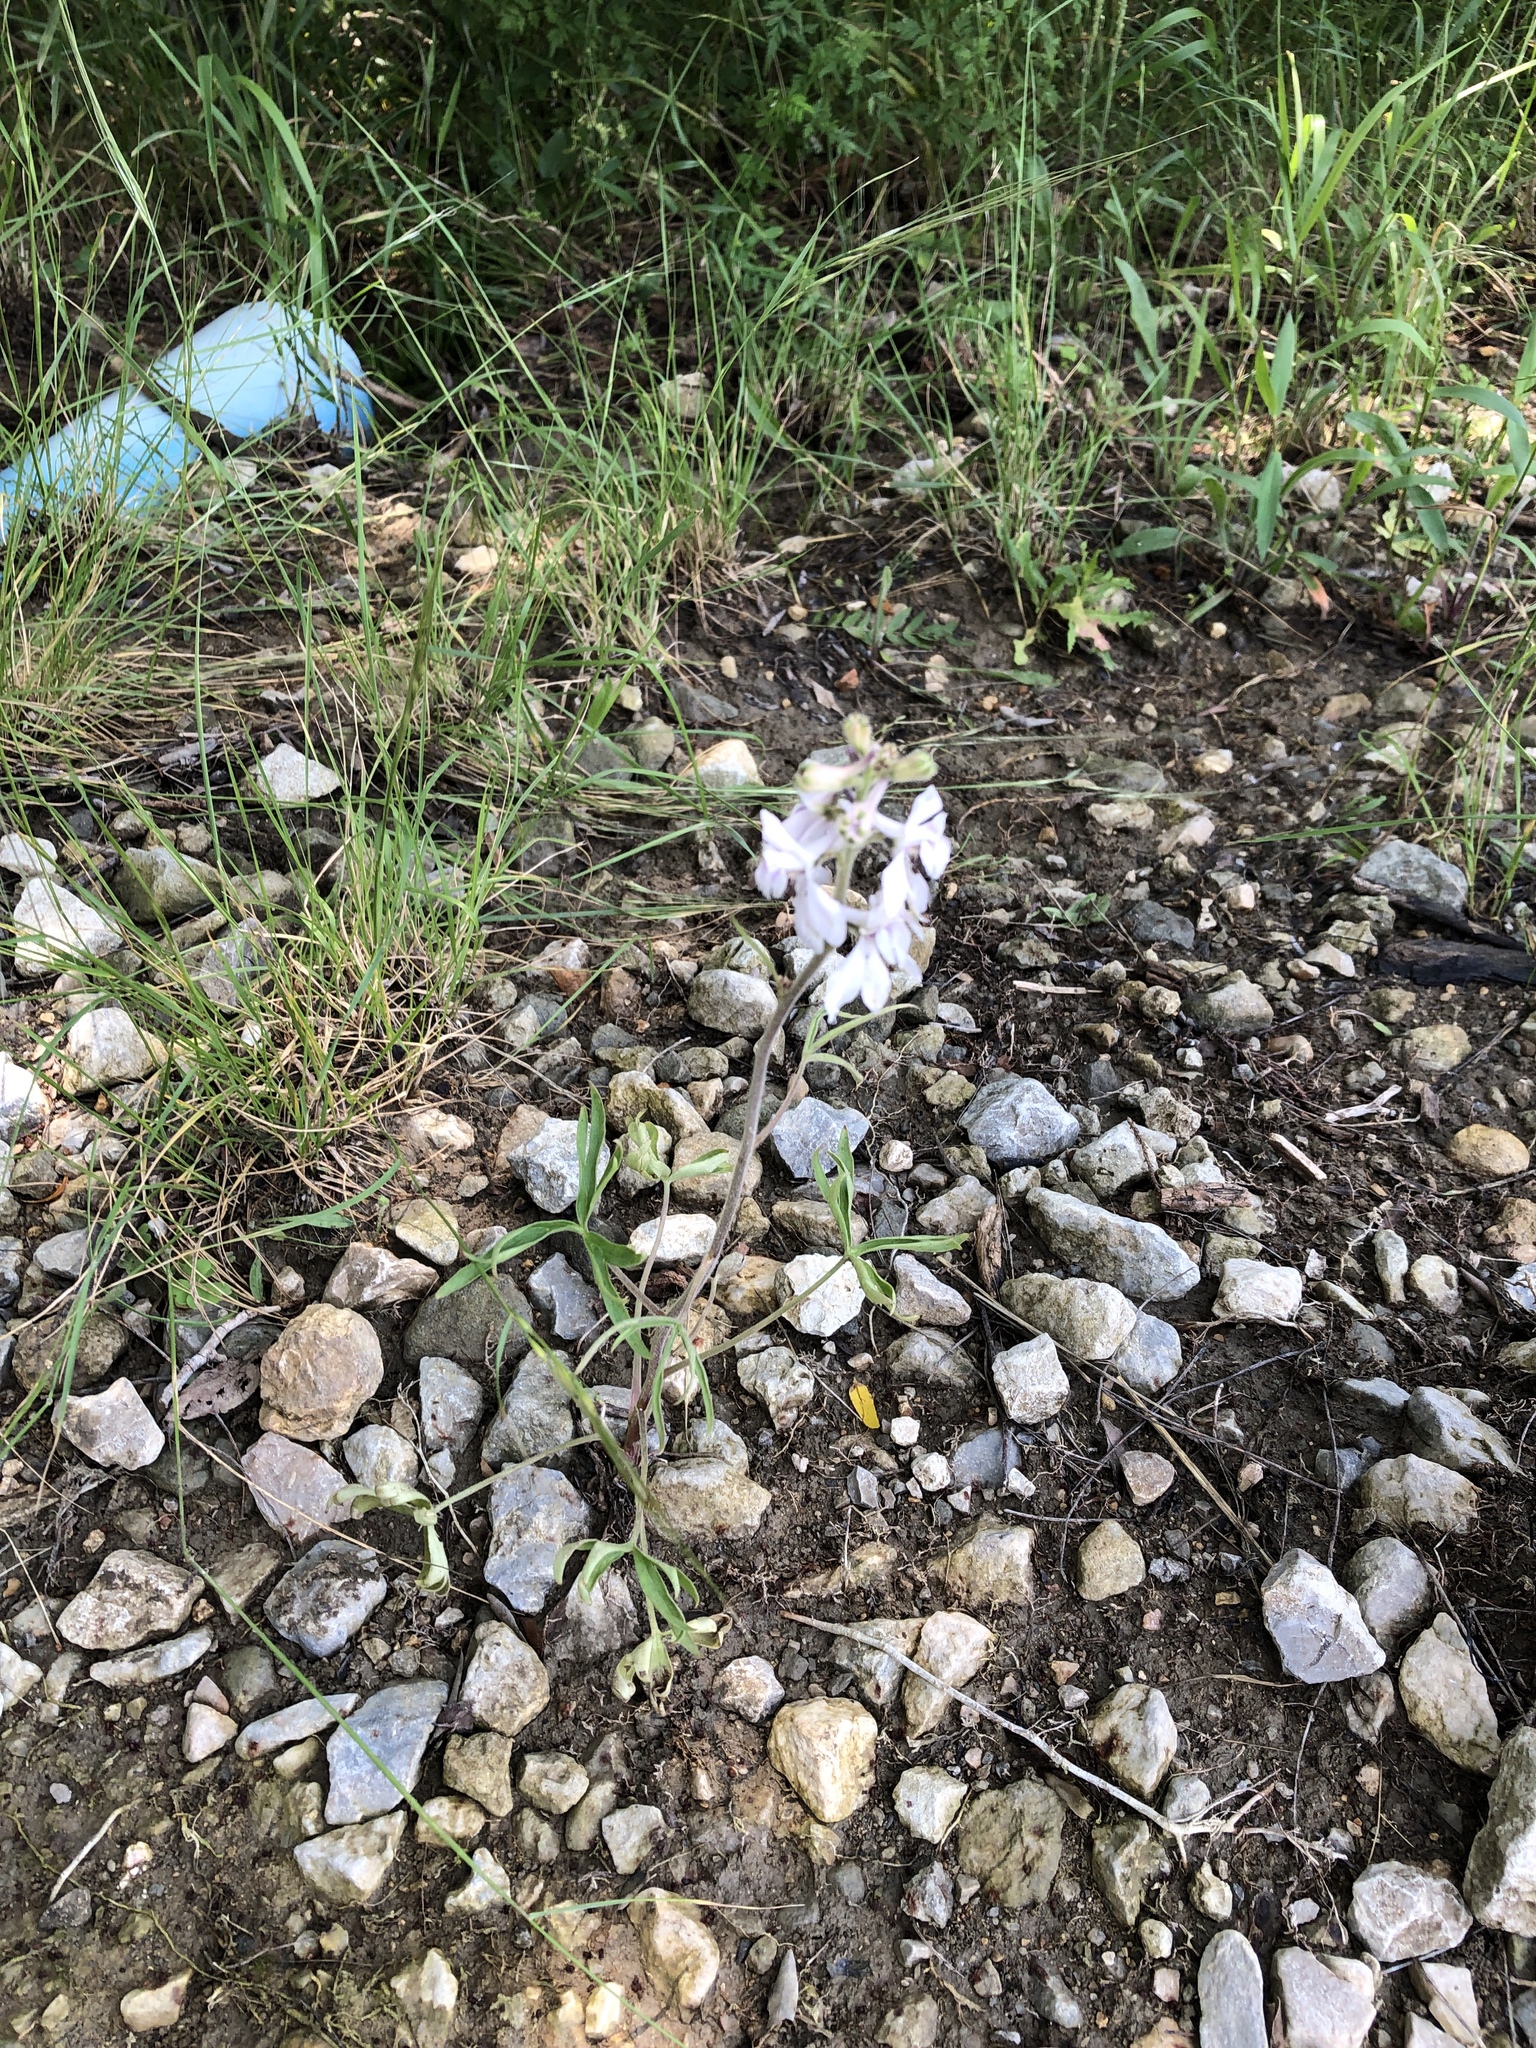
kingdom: Plantae
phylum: Tracheophyta
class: Magnoliopsida
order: Ranunculales
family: Ranunculaceae
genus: Delphinium
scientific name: Delphinium carolinianum
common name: Carolina larkspur
